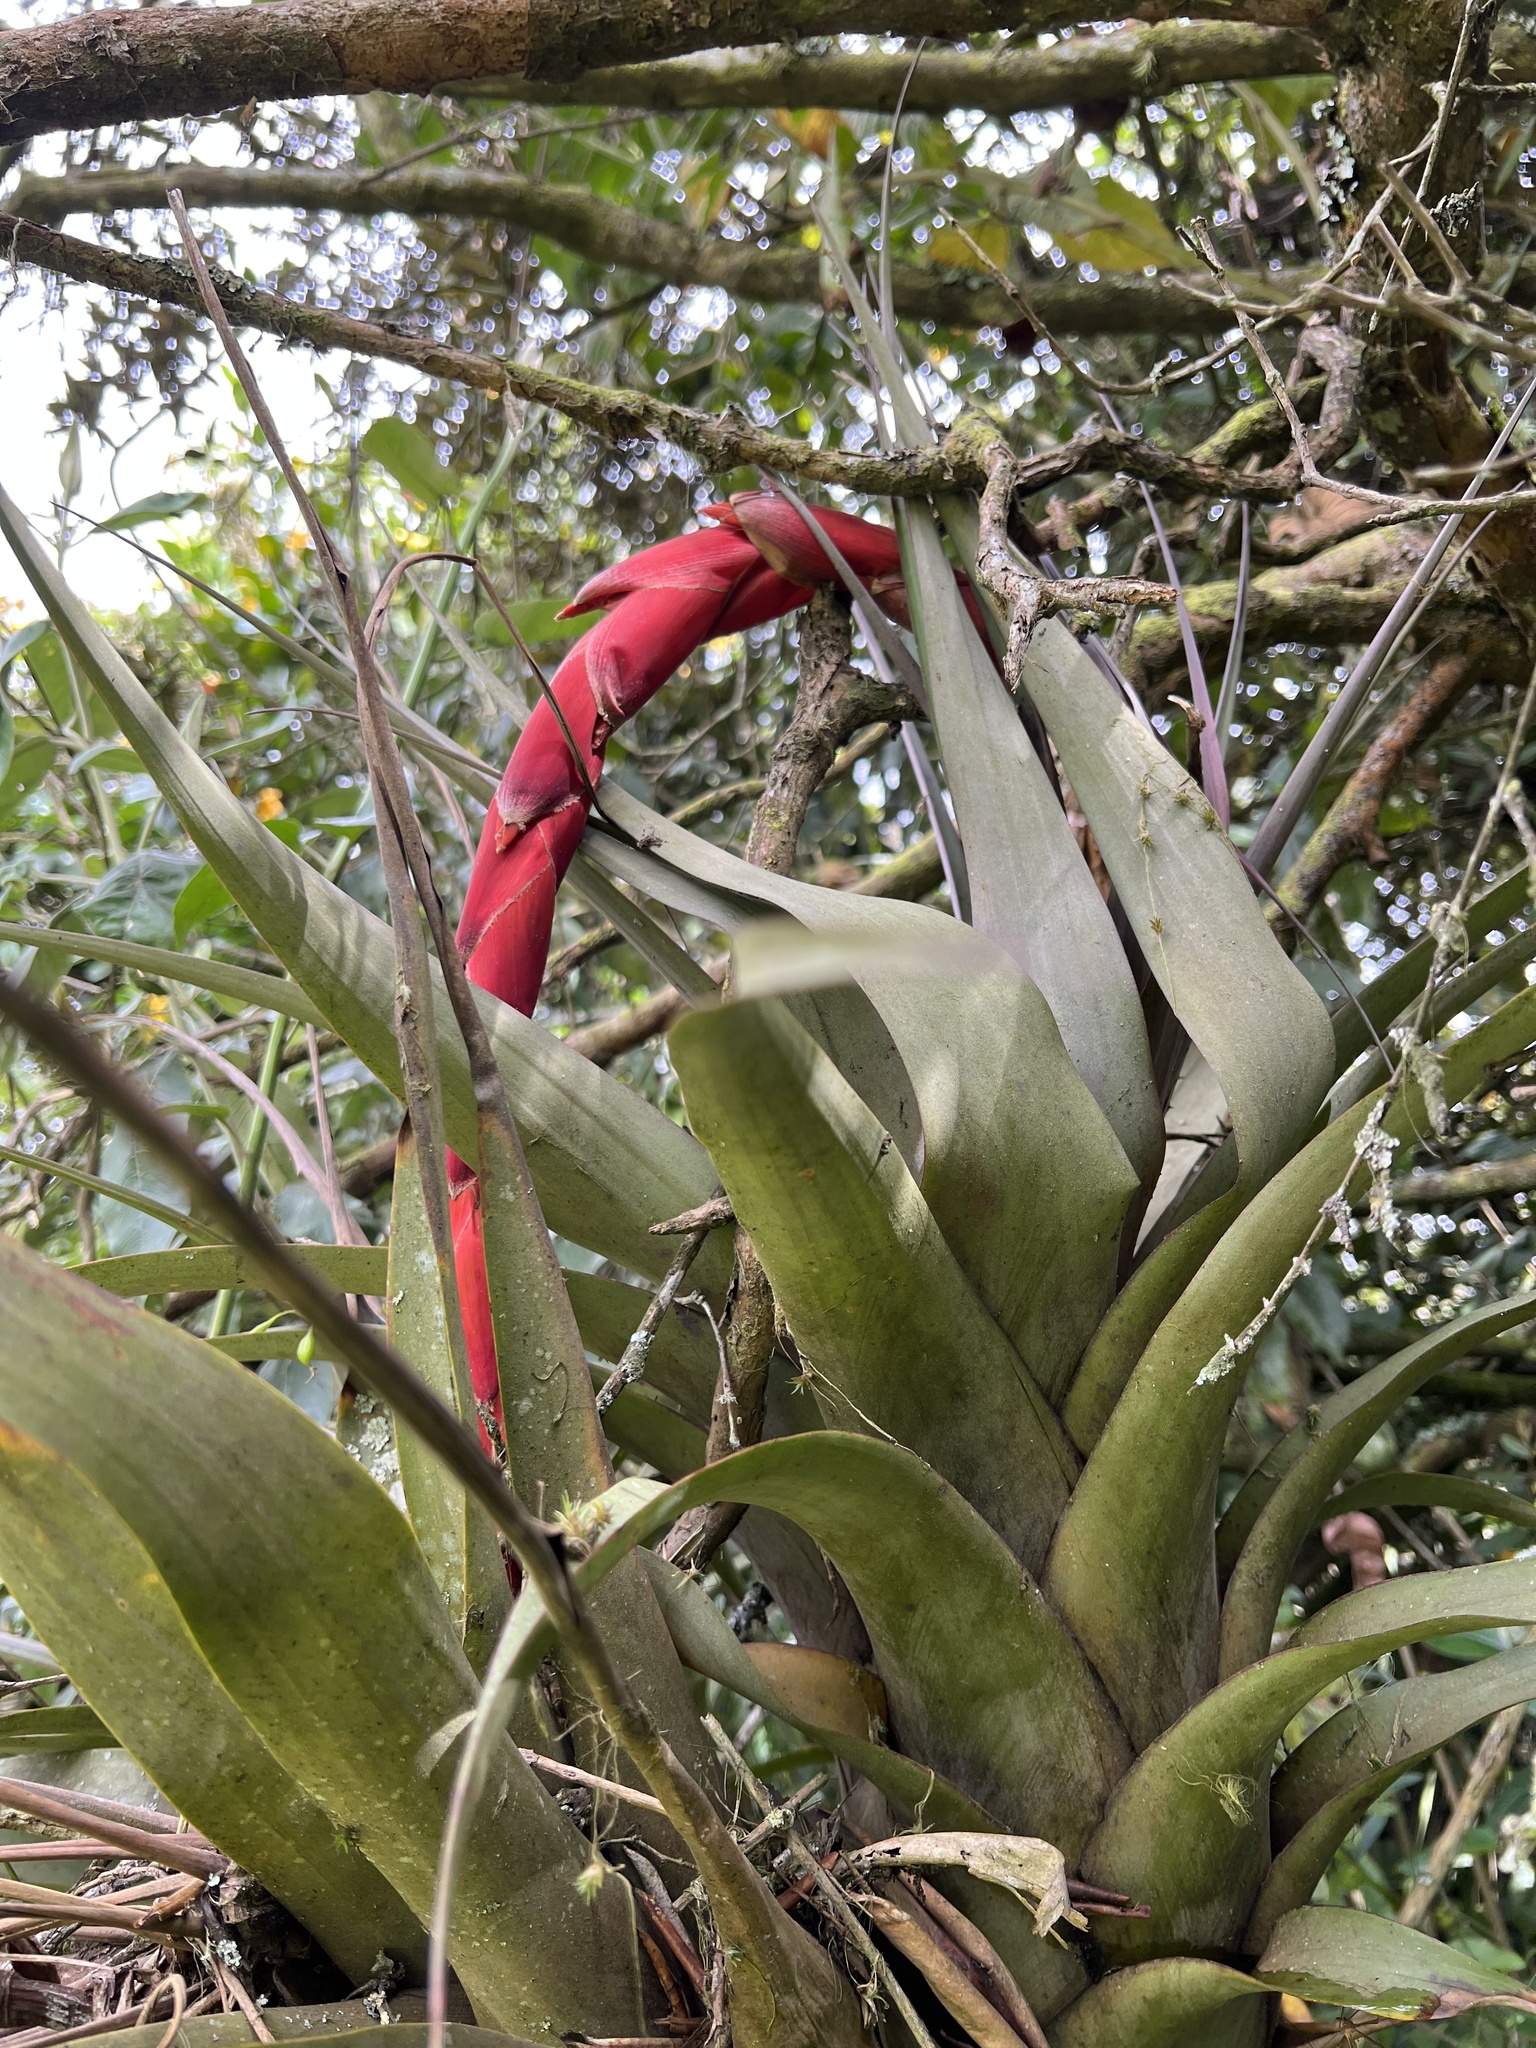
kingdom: Plantae
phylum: Tracheophyta
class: Liliopsida
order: Poales
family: Bromeliaceae
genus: Vriesea
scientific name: Vriesea tequendamae
